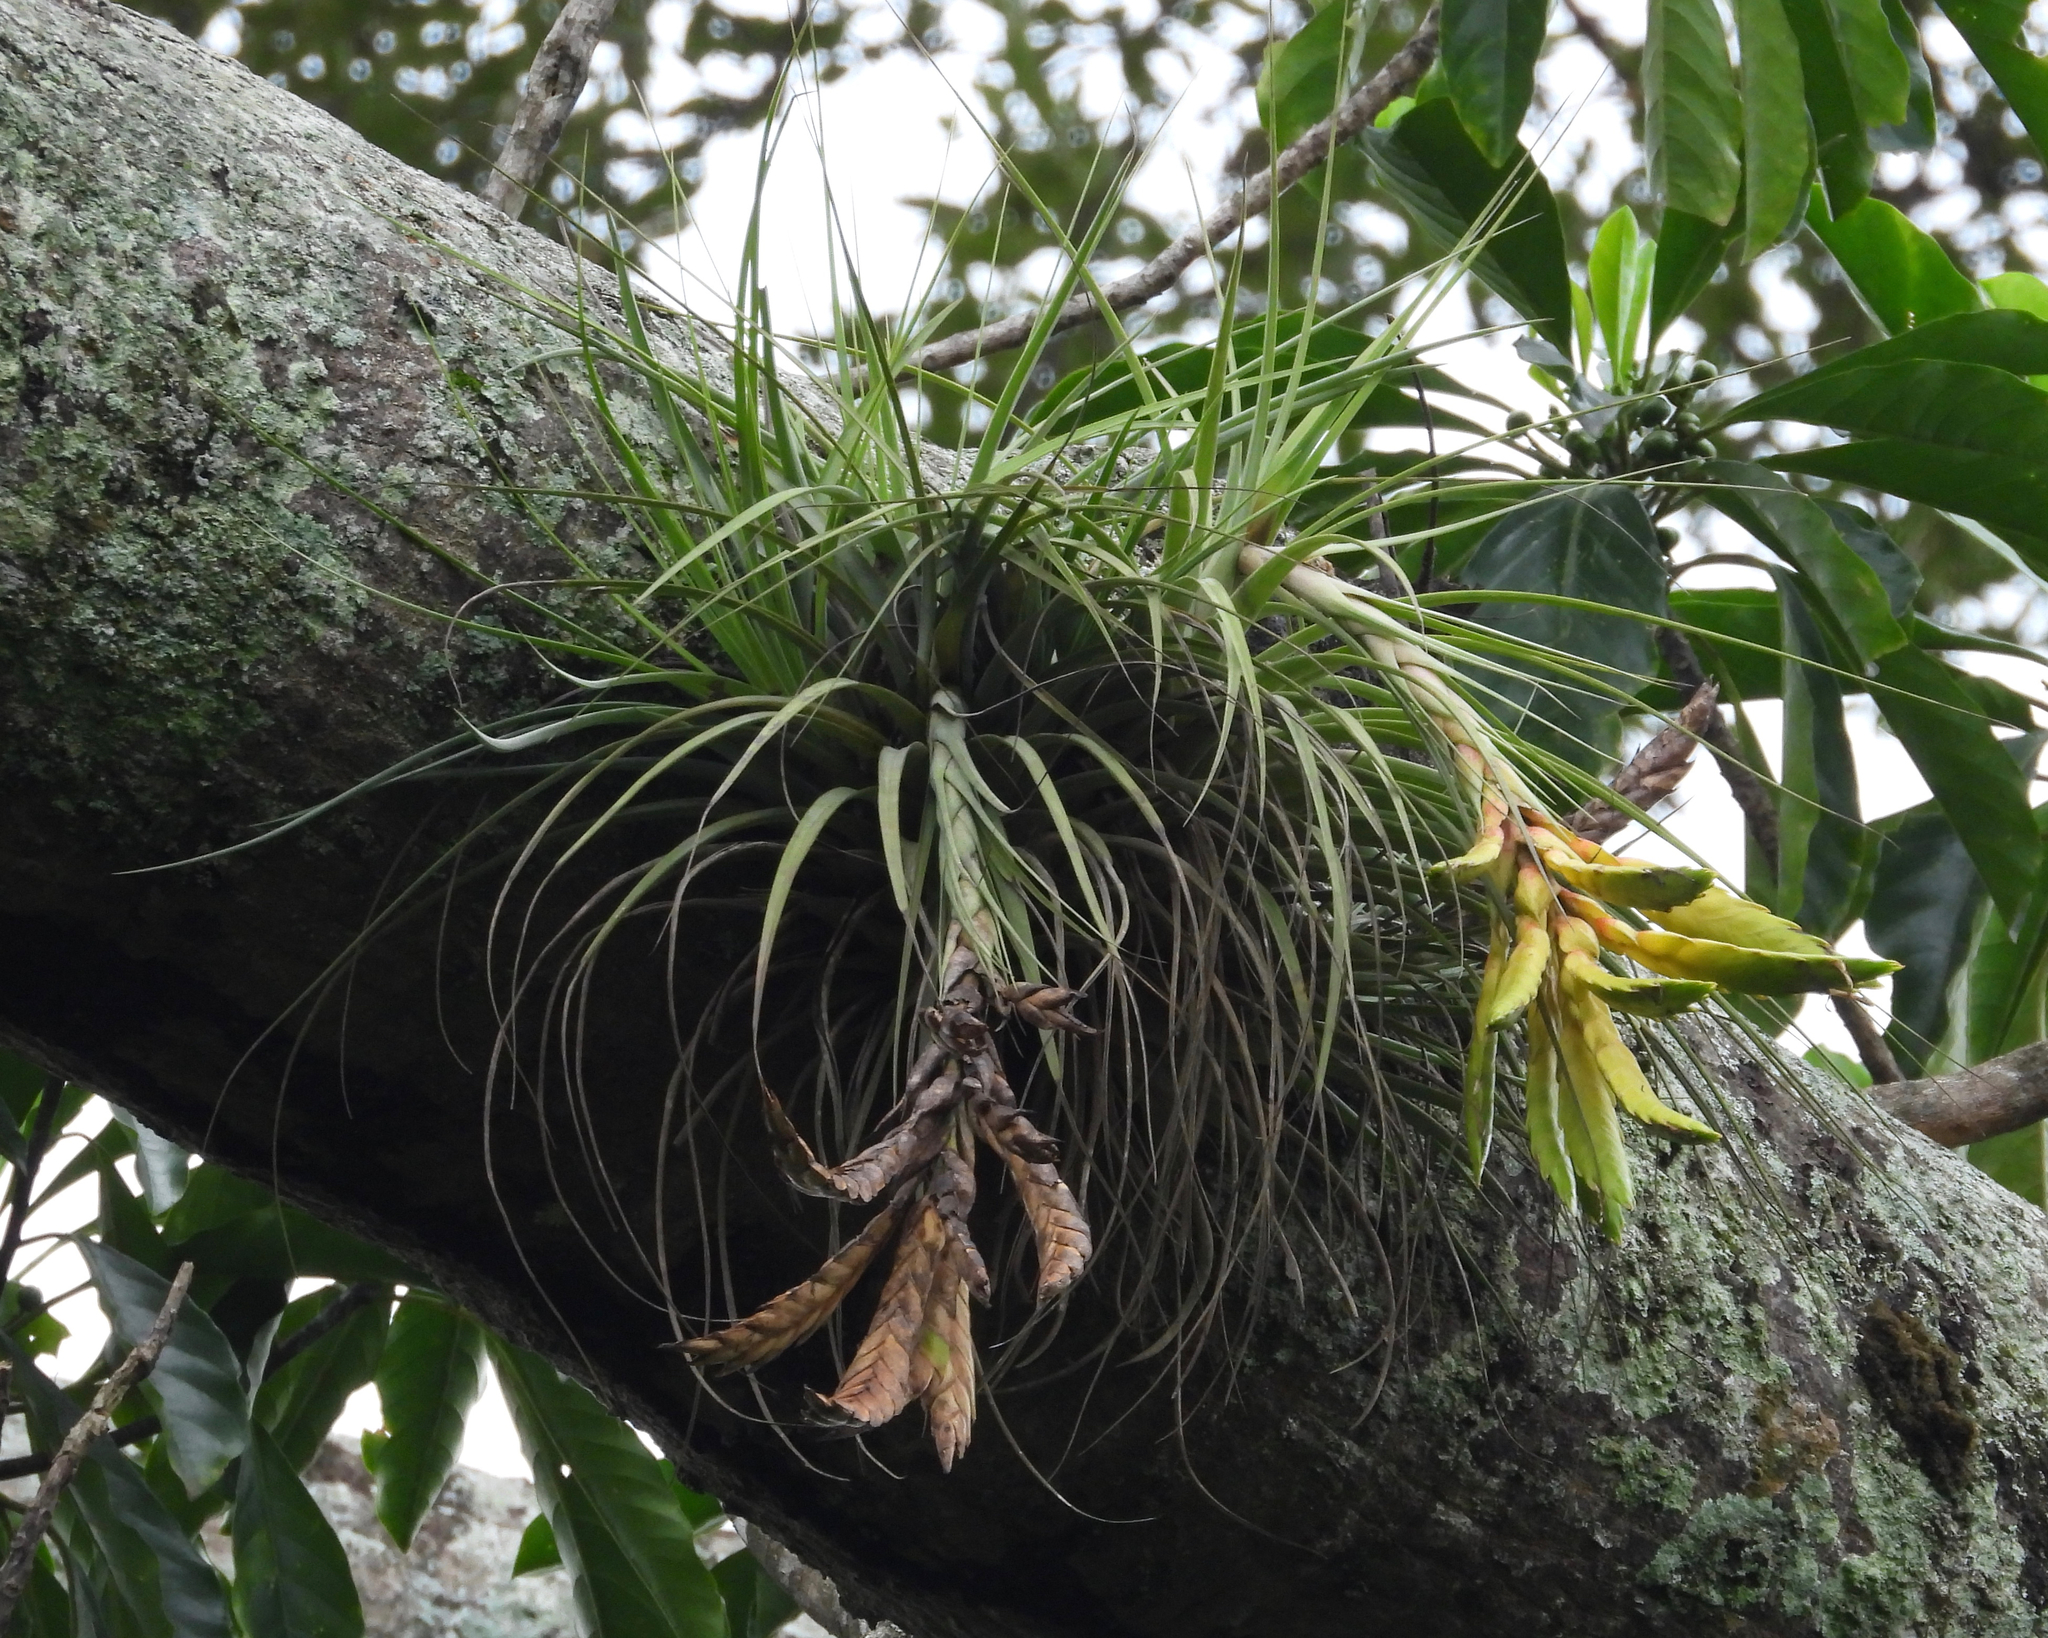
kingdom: Plantae
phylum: Tracheophyta
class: Liliopsida
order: Poales
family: Bromeliaceae
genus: Tillandsia
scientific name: Tillandsia fasciculata
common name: Giant airplant
